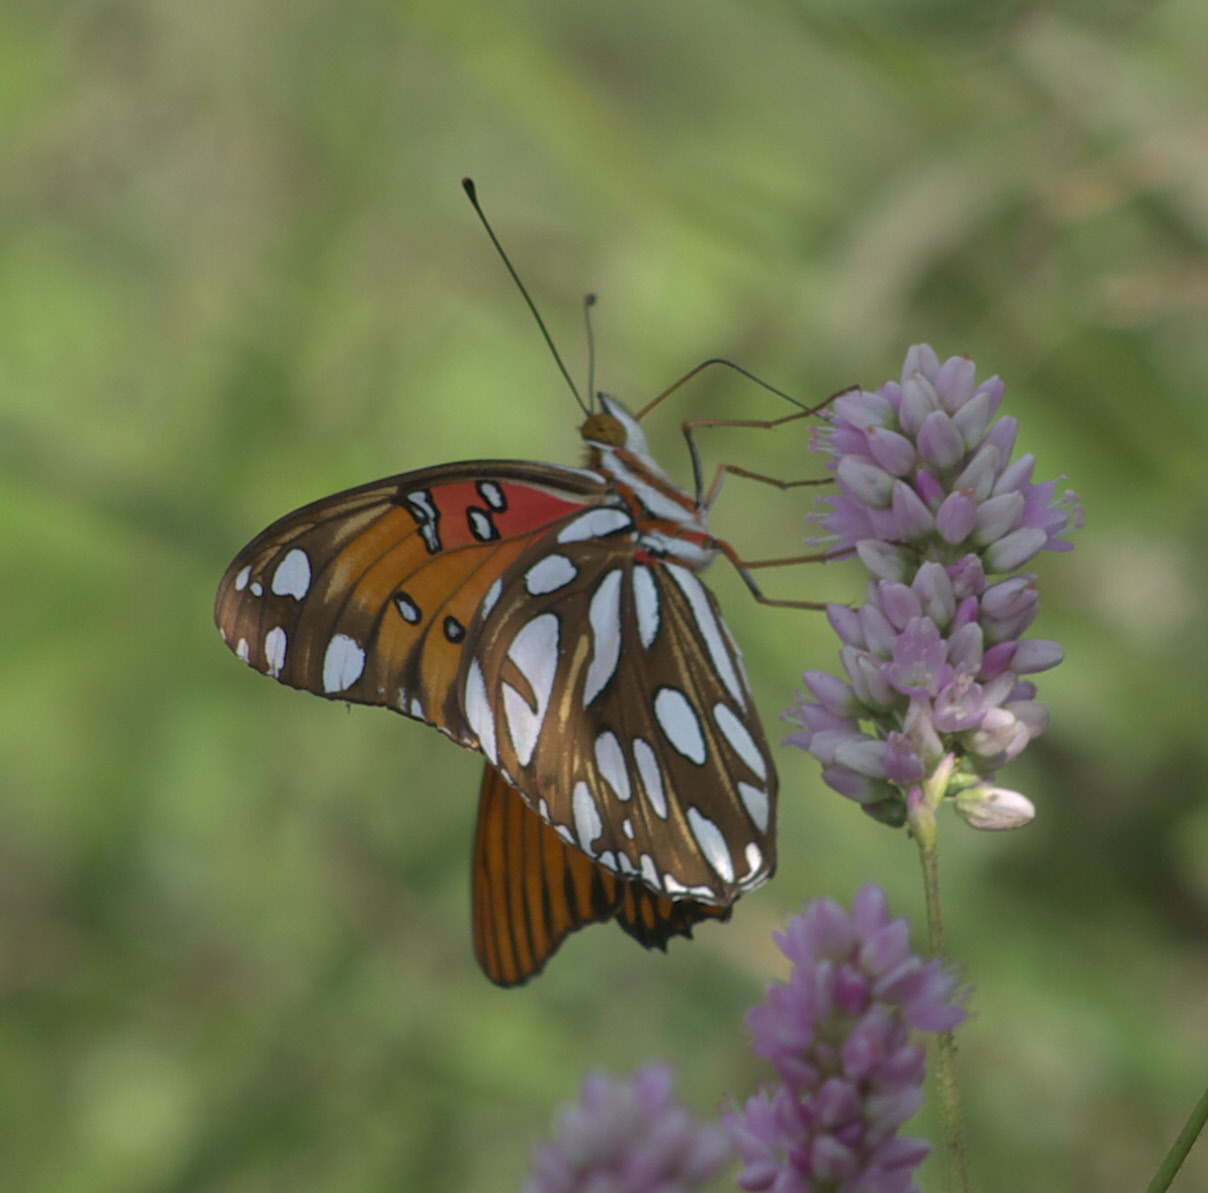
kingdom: Animalia
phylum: Arthropoda
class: Insecta
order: Lepidoptera
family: Nymphalidae
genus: Dione
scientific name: Dione vanillae
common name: Gulf fritillary
